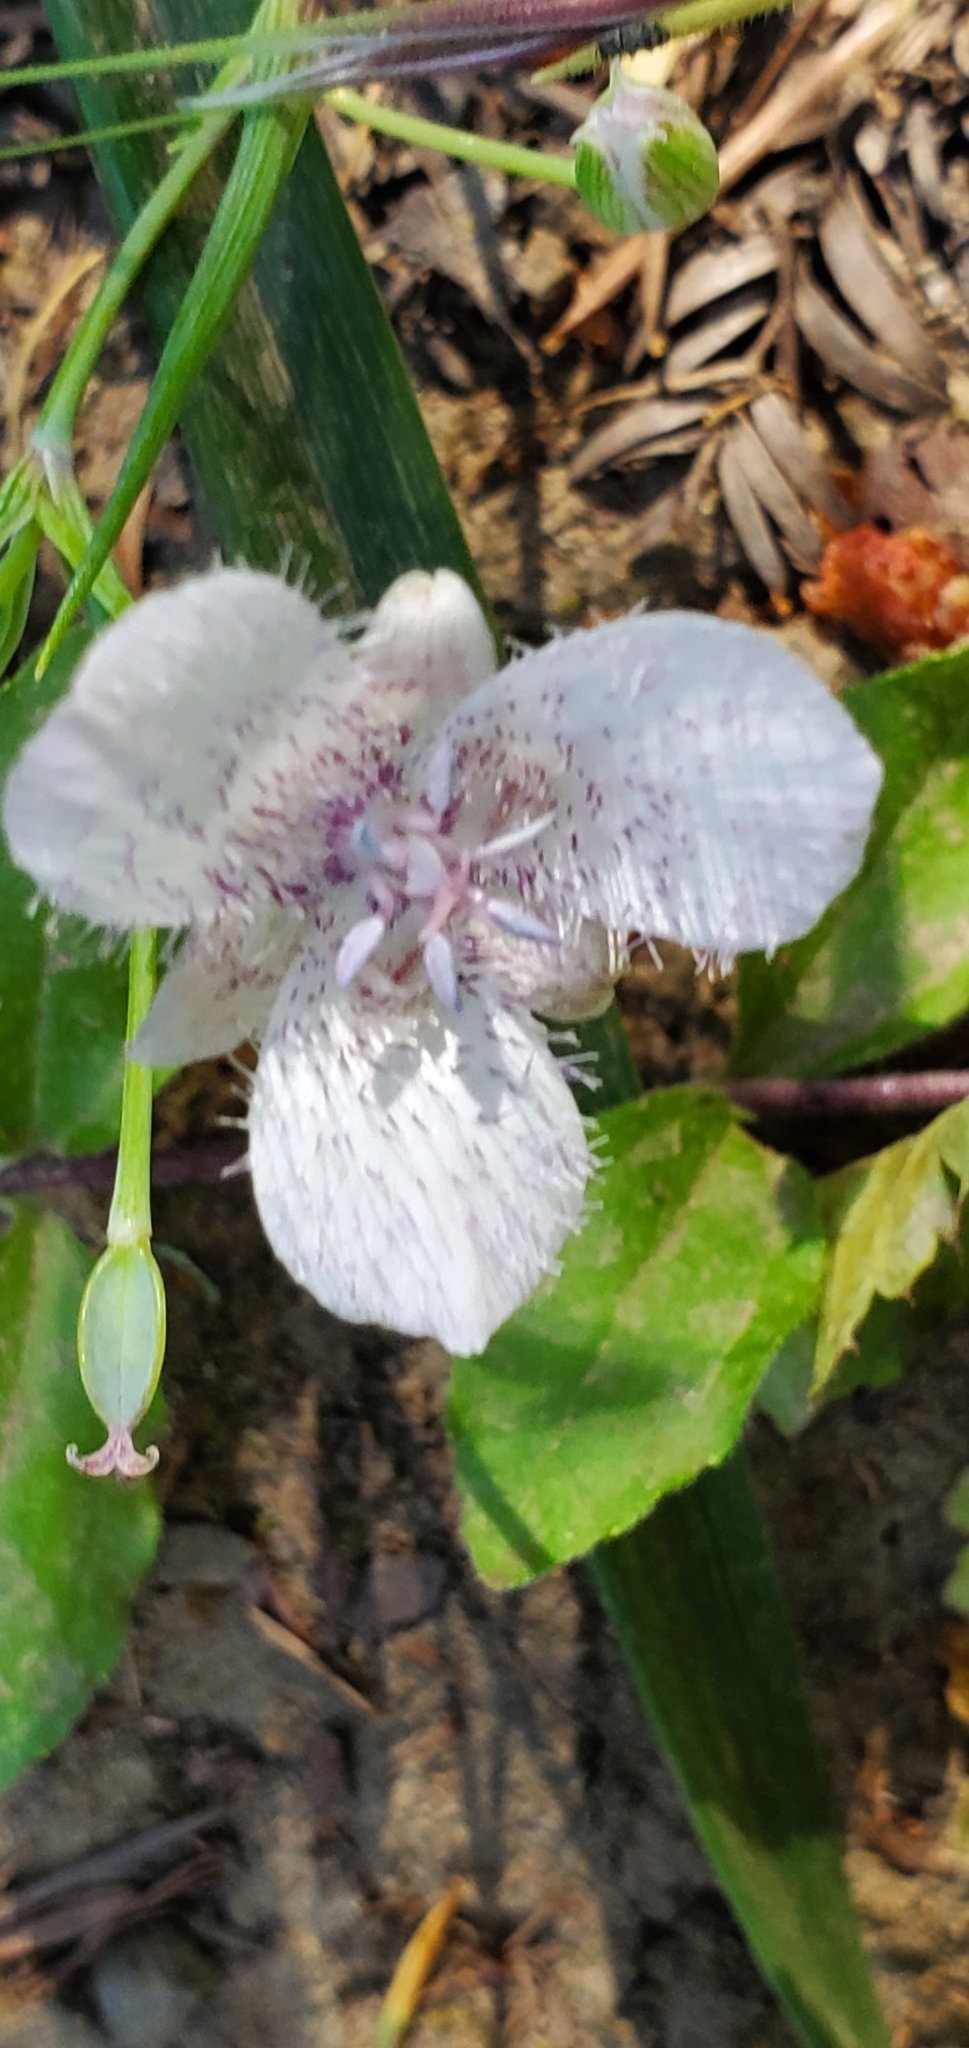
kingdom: Plantae
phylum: Tracheophyta
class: Liliopsida
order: Liliales
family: Liliaceae
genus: Calochortus
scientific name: Calochortus tolmiei
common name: Pussy-ears
